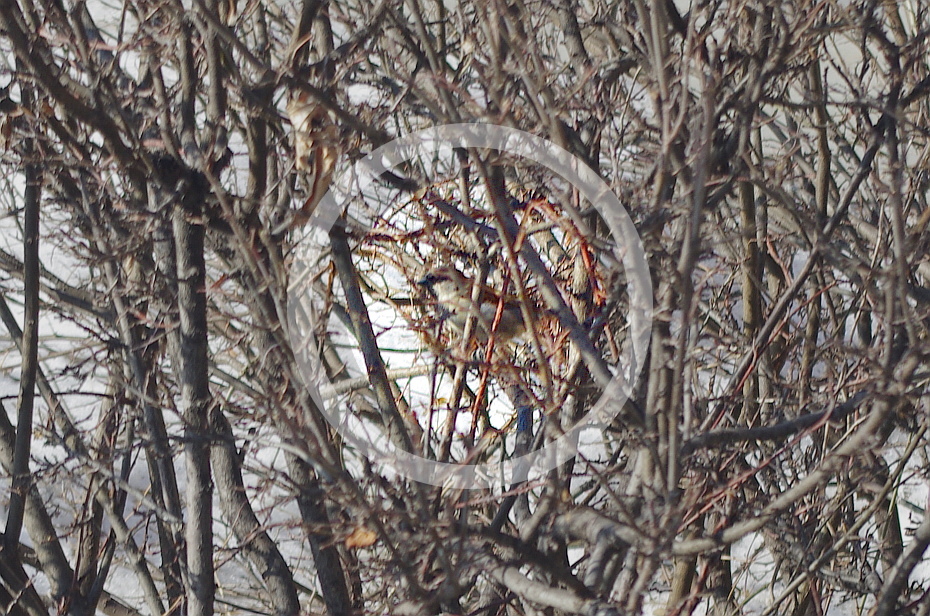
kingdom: Animalia
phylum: Chordata
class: Aves
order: Passeriformes
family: Passeridae
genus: Passer
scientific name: Passer domesticus
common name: House sparrow
